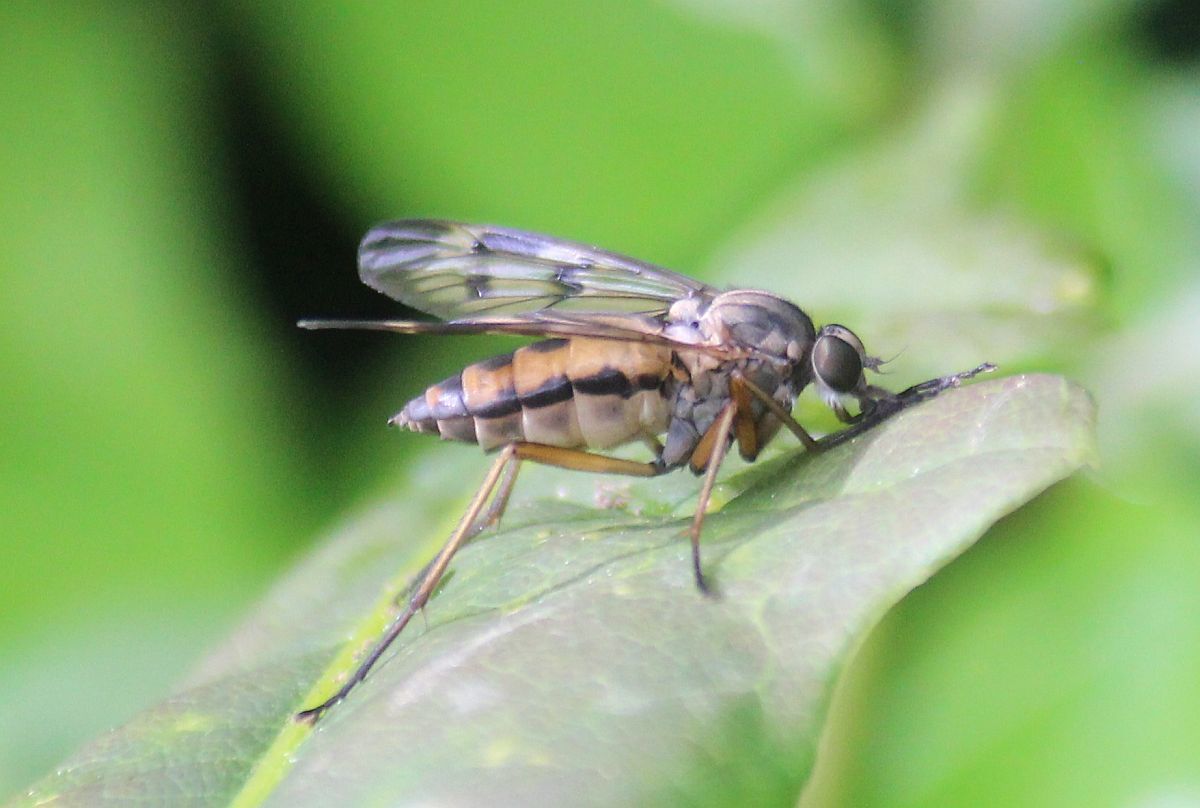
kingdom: Animalia
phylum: Arthropoda
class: Insecta
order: Diptera
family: Rhagionidae
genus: Rhagio
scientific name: Rhagio scolopacea
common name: Downlooker snipefly
